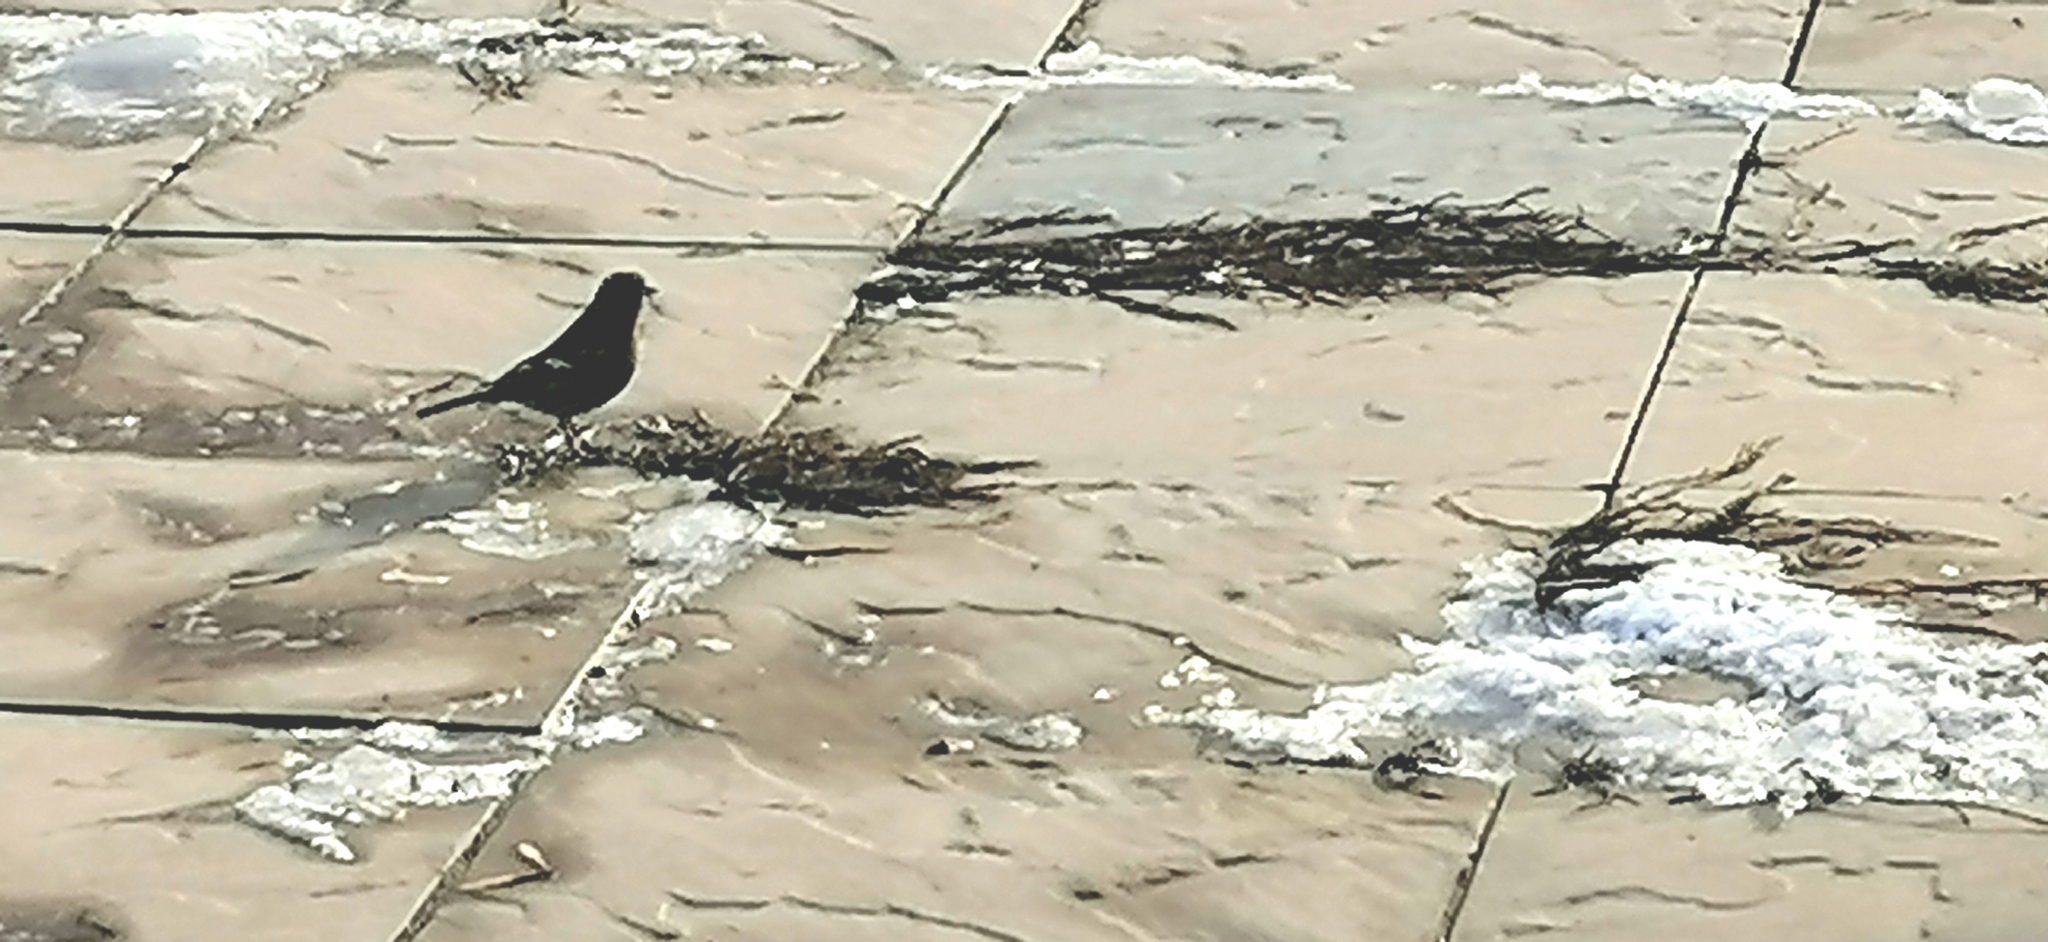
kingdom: Animalia
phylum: Chordata
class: Aves
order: Passeriformes
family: Fringillidae
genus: Fringilla
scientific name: Fringilla coelebs
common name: Common chaffinch
